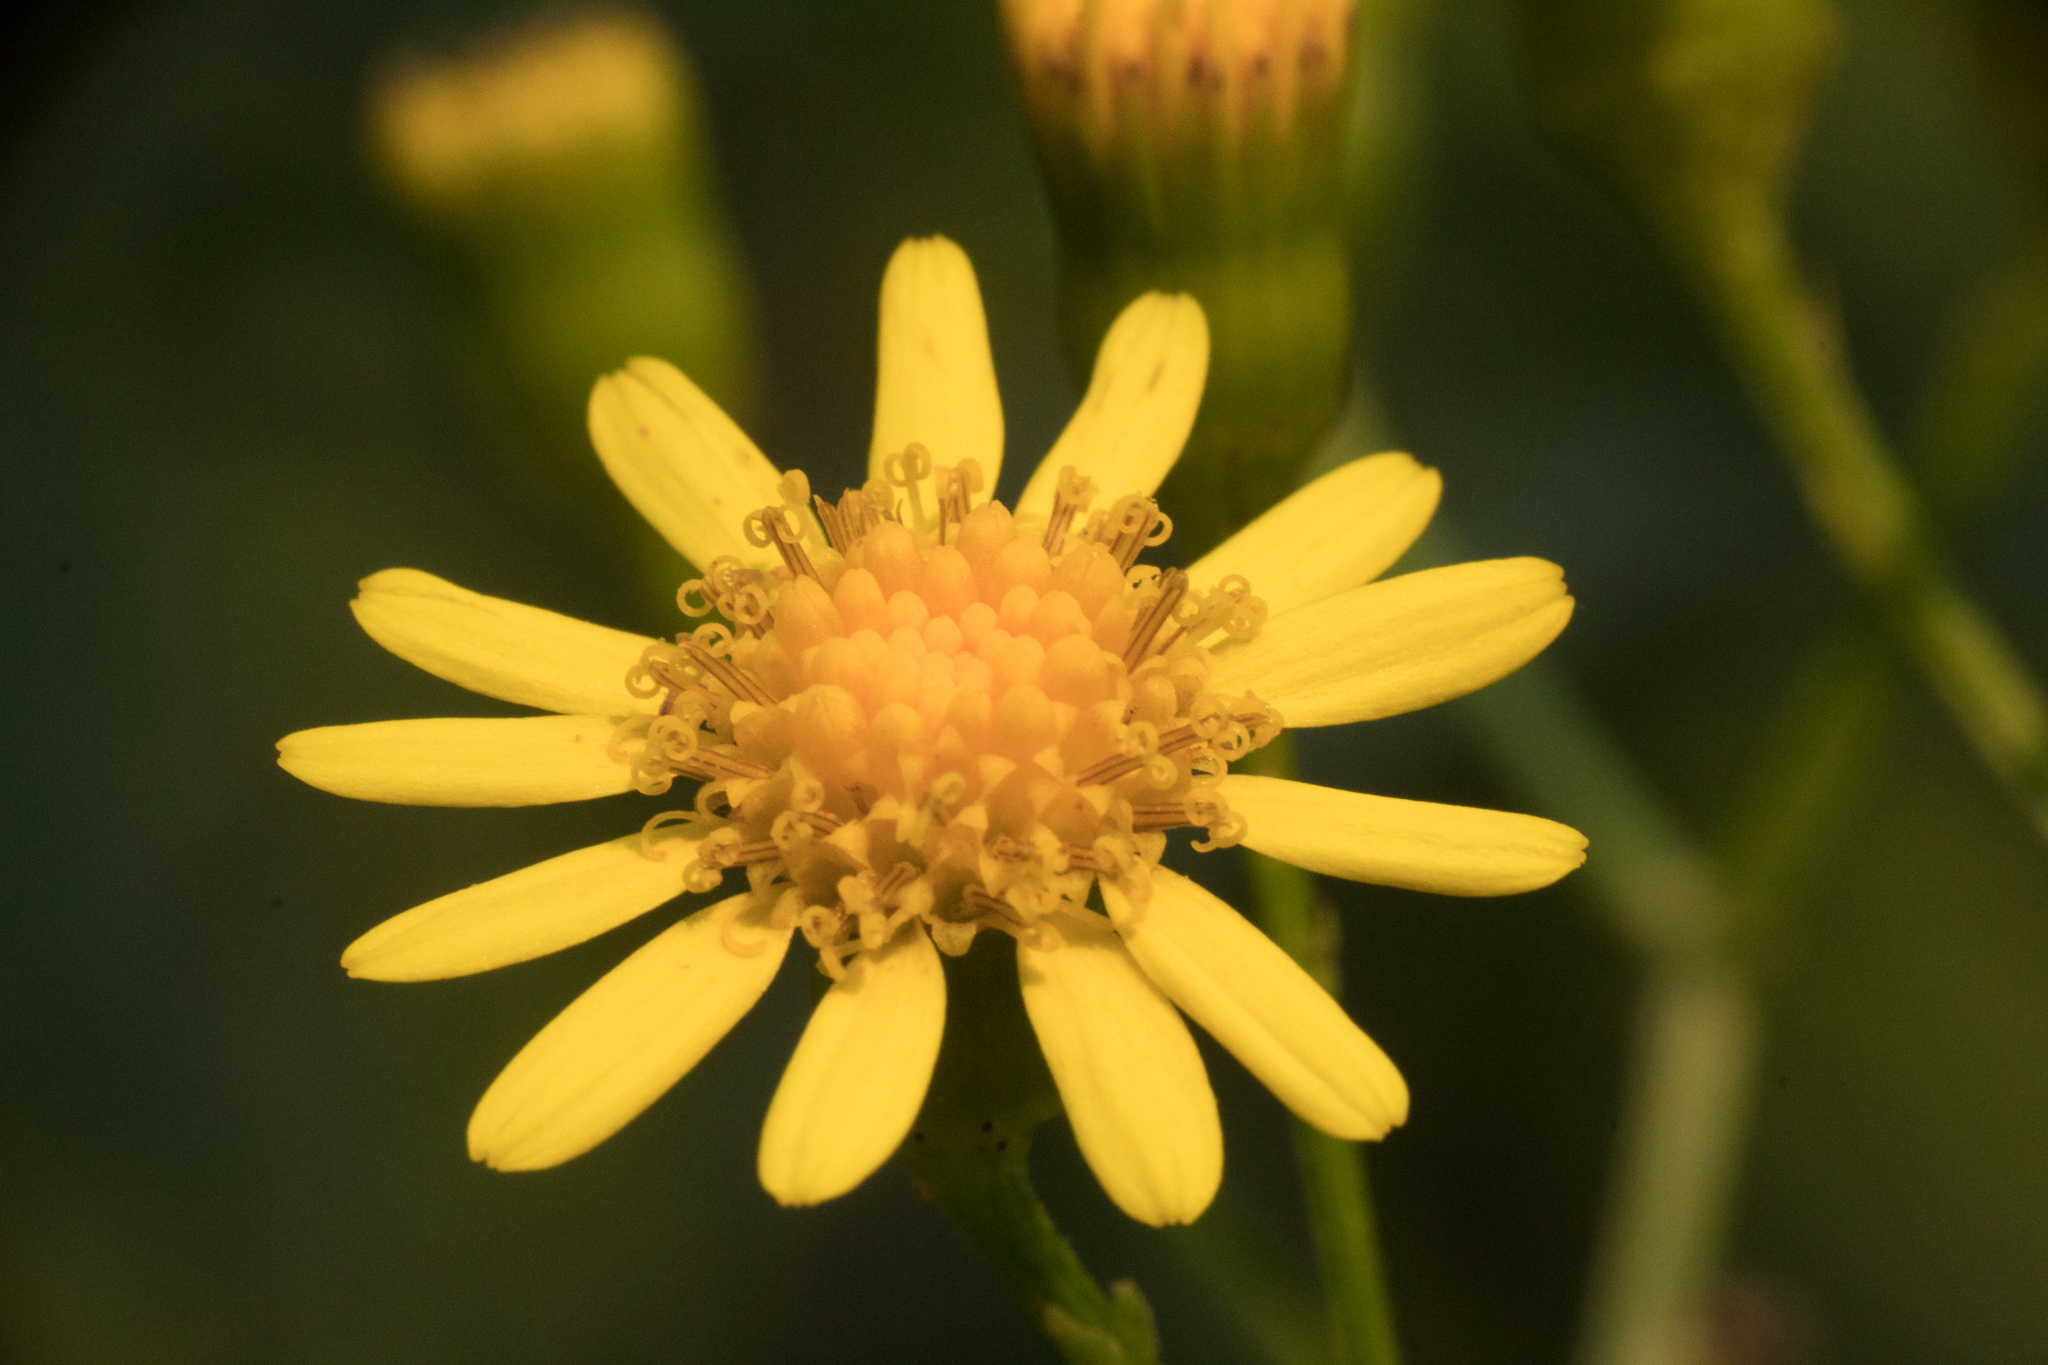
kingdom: Plantae
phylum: Tracheophyta
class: Magnoliopsida
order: Asterales
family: Asteraceae
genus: Senecio
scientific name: Senecio brasiliensis
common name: Hemp-leaf ragwort
